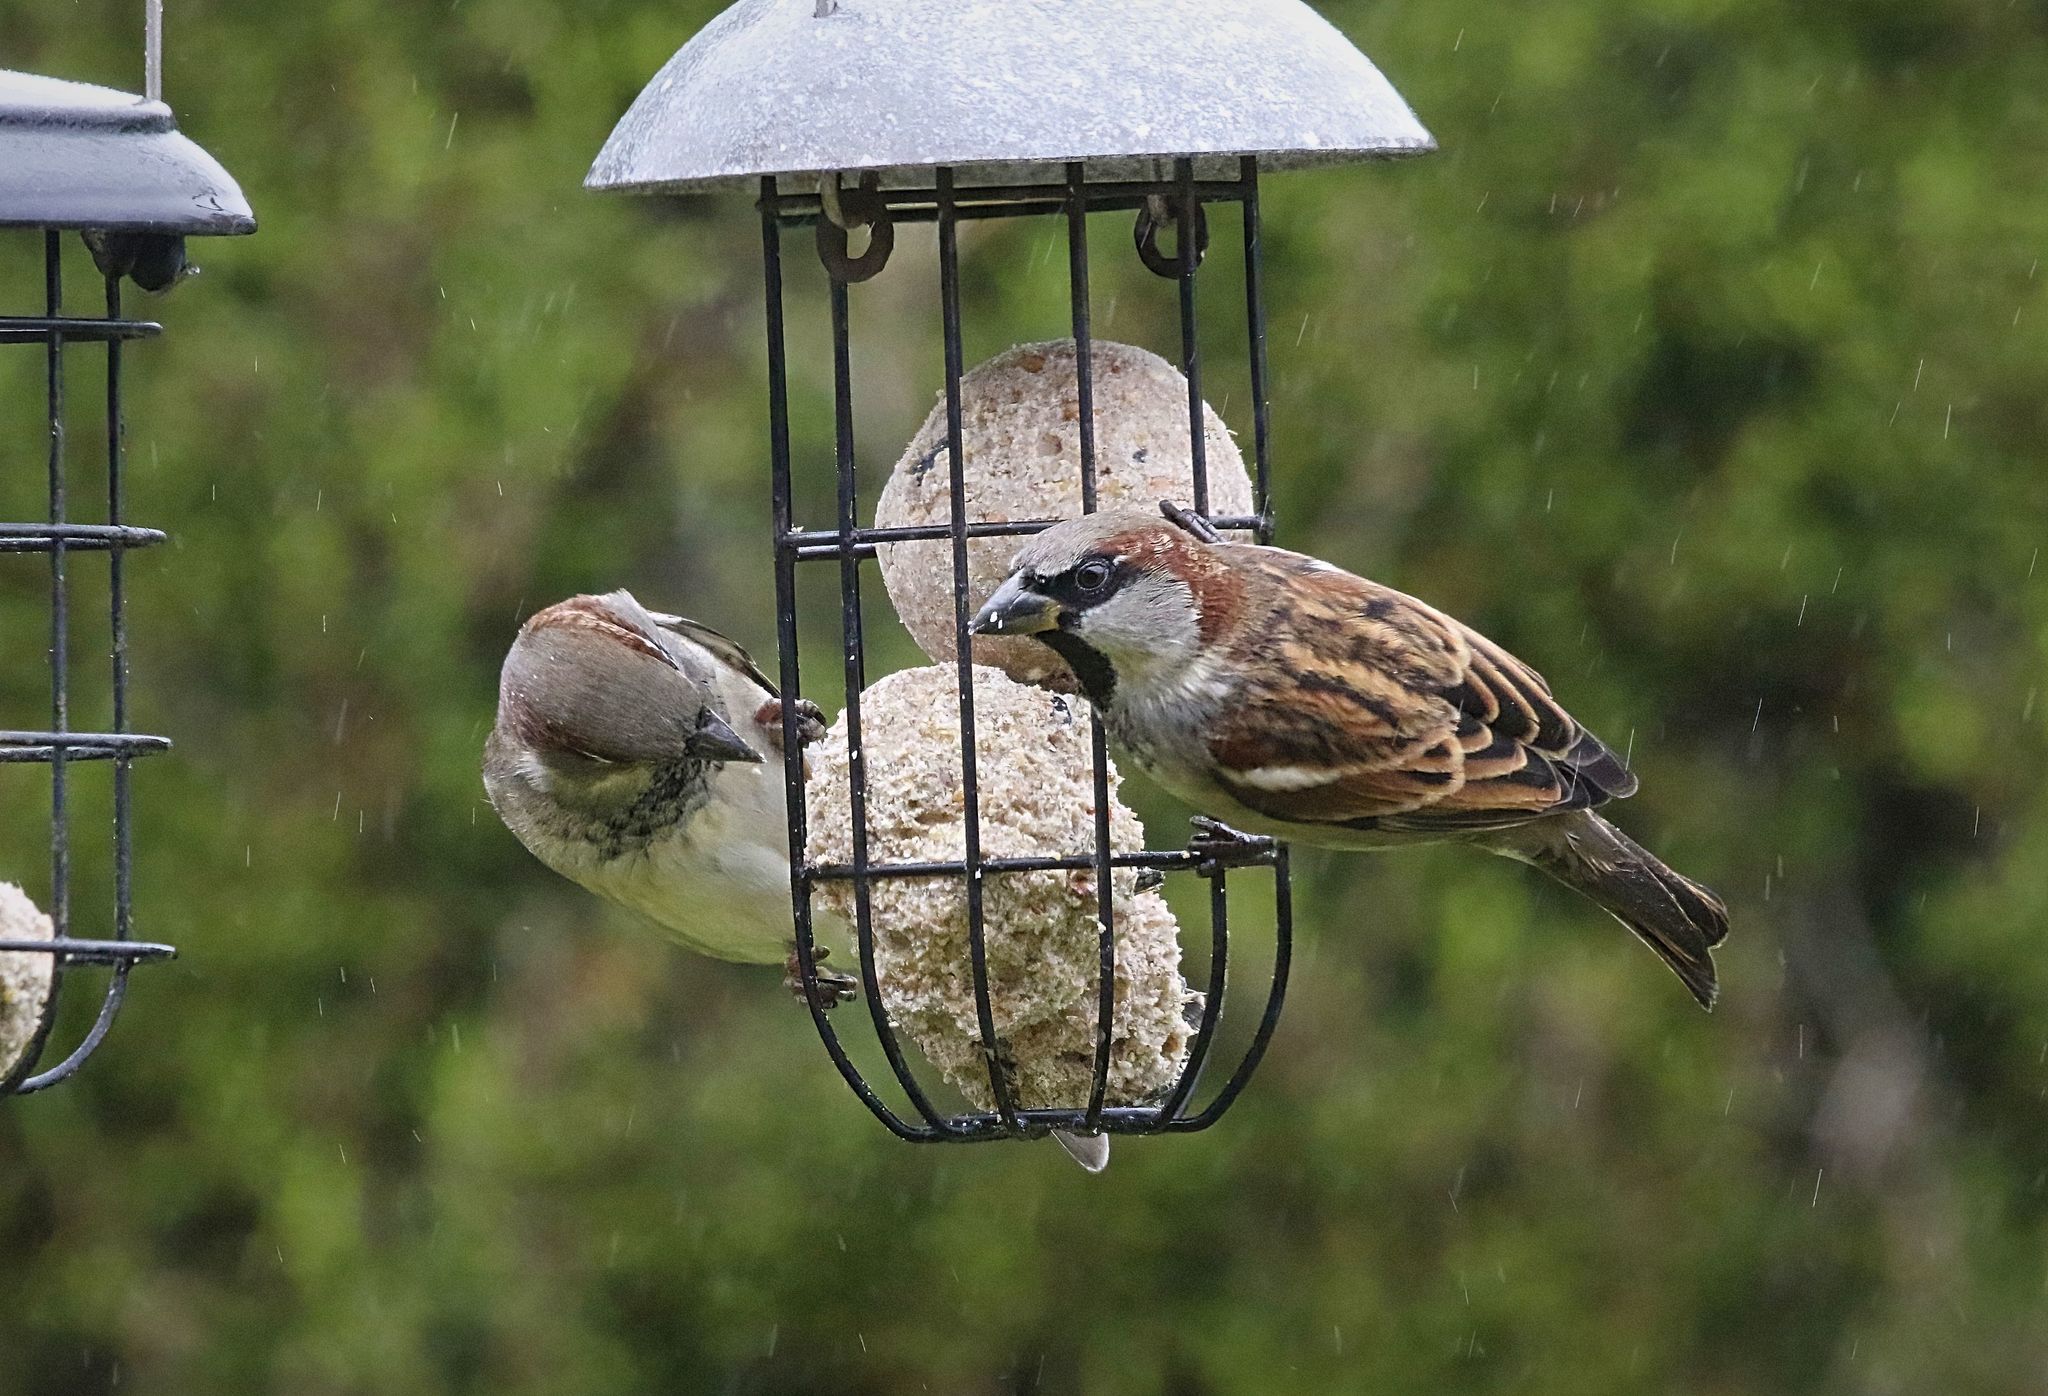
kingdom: Animalia
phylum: Chordata
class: Aves
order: Passeriformes
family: Passeridae
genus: Passer
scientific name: Passer domesticus
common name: House sparrow
